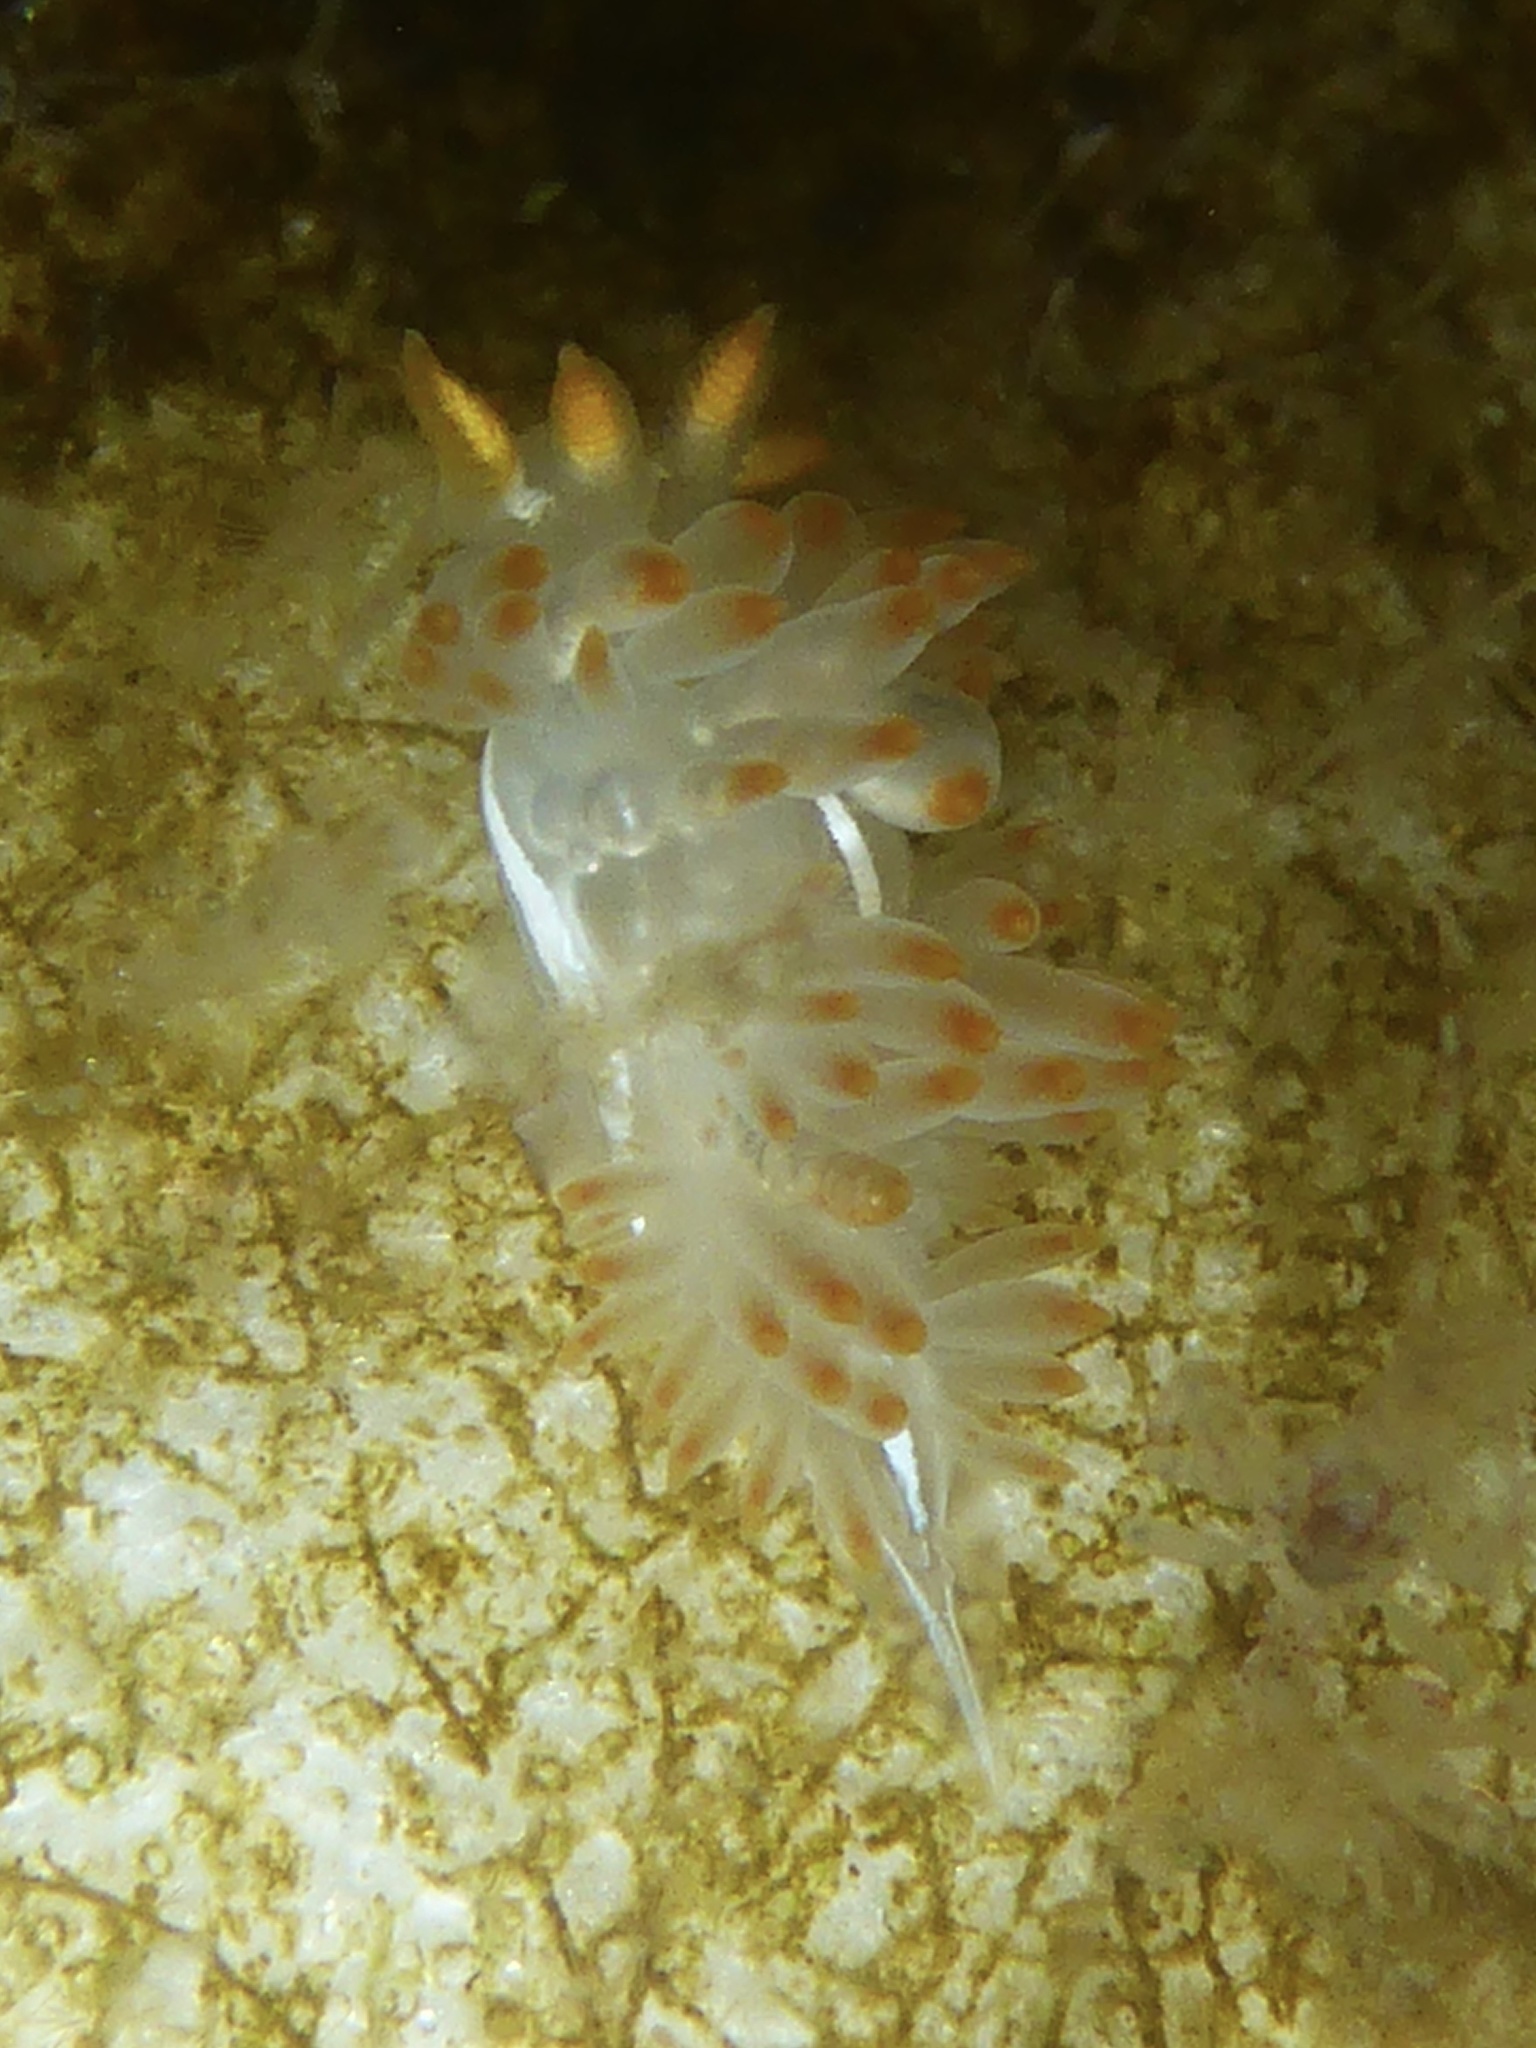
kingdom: Animalia
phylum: Mollusca
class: Gastropoda
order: Nudibranchia
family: Coryphellidae
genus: Coryphella
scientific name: Coryphella trilineata
